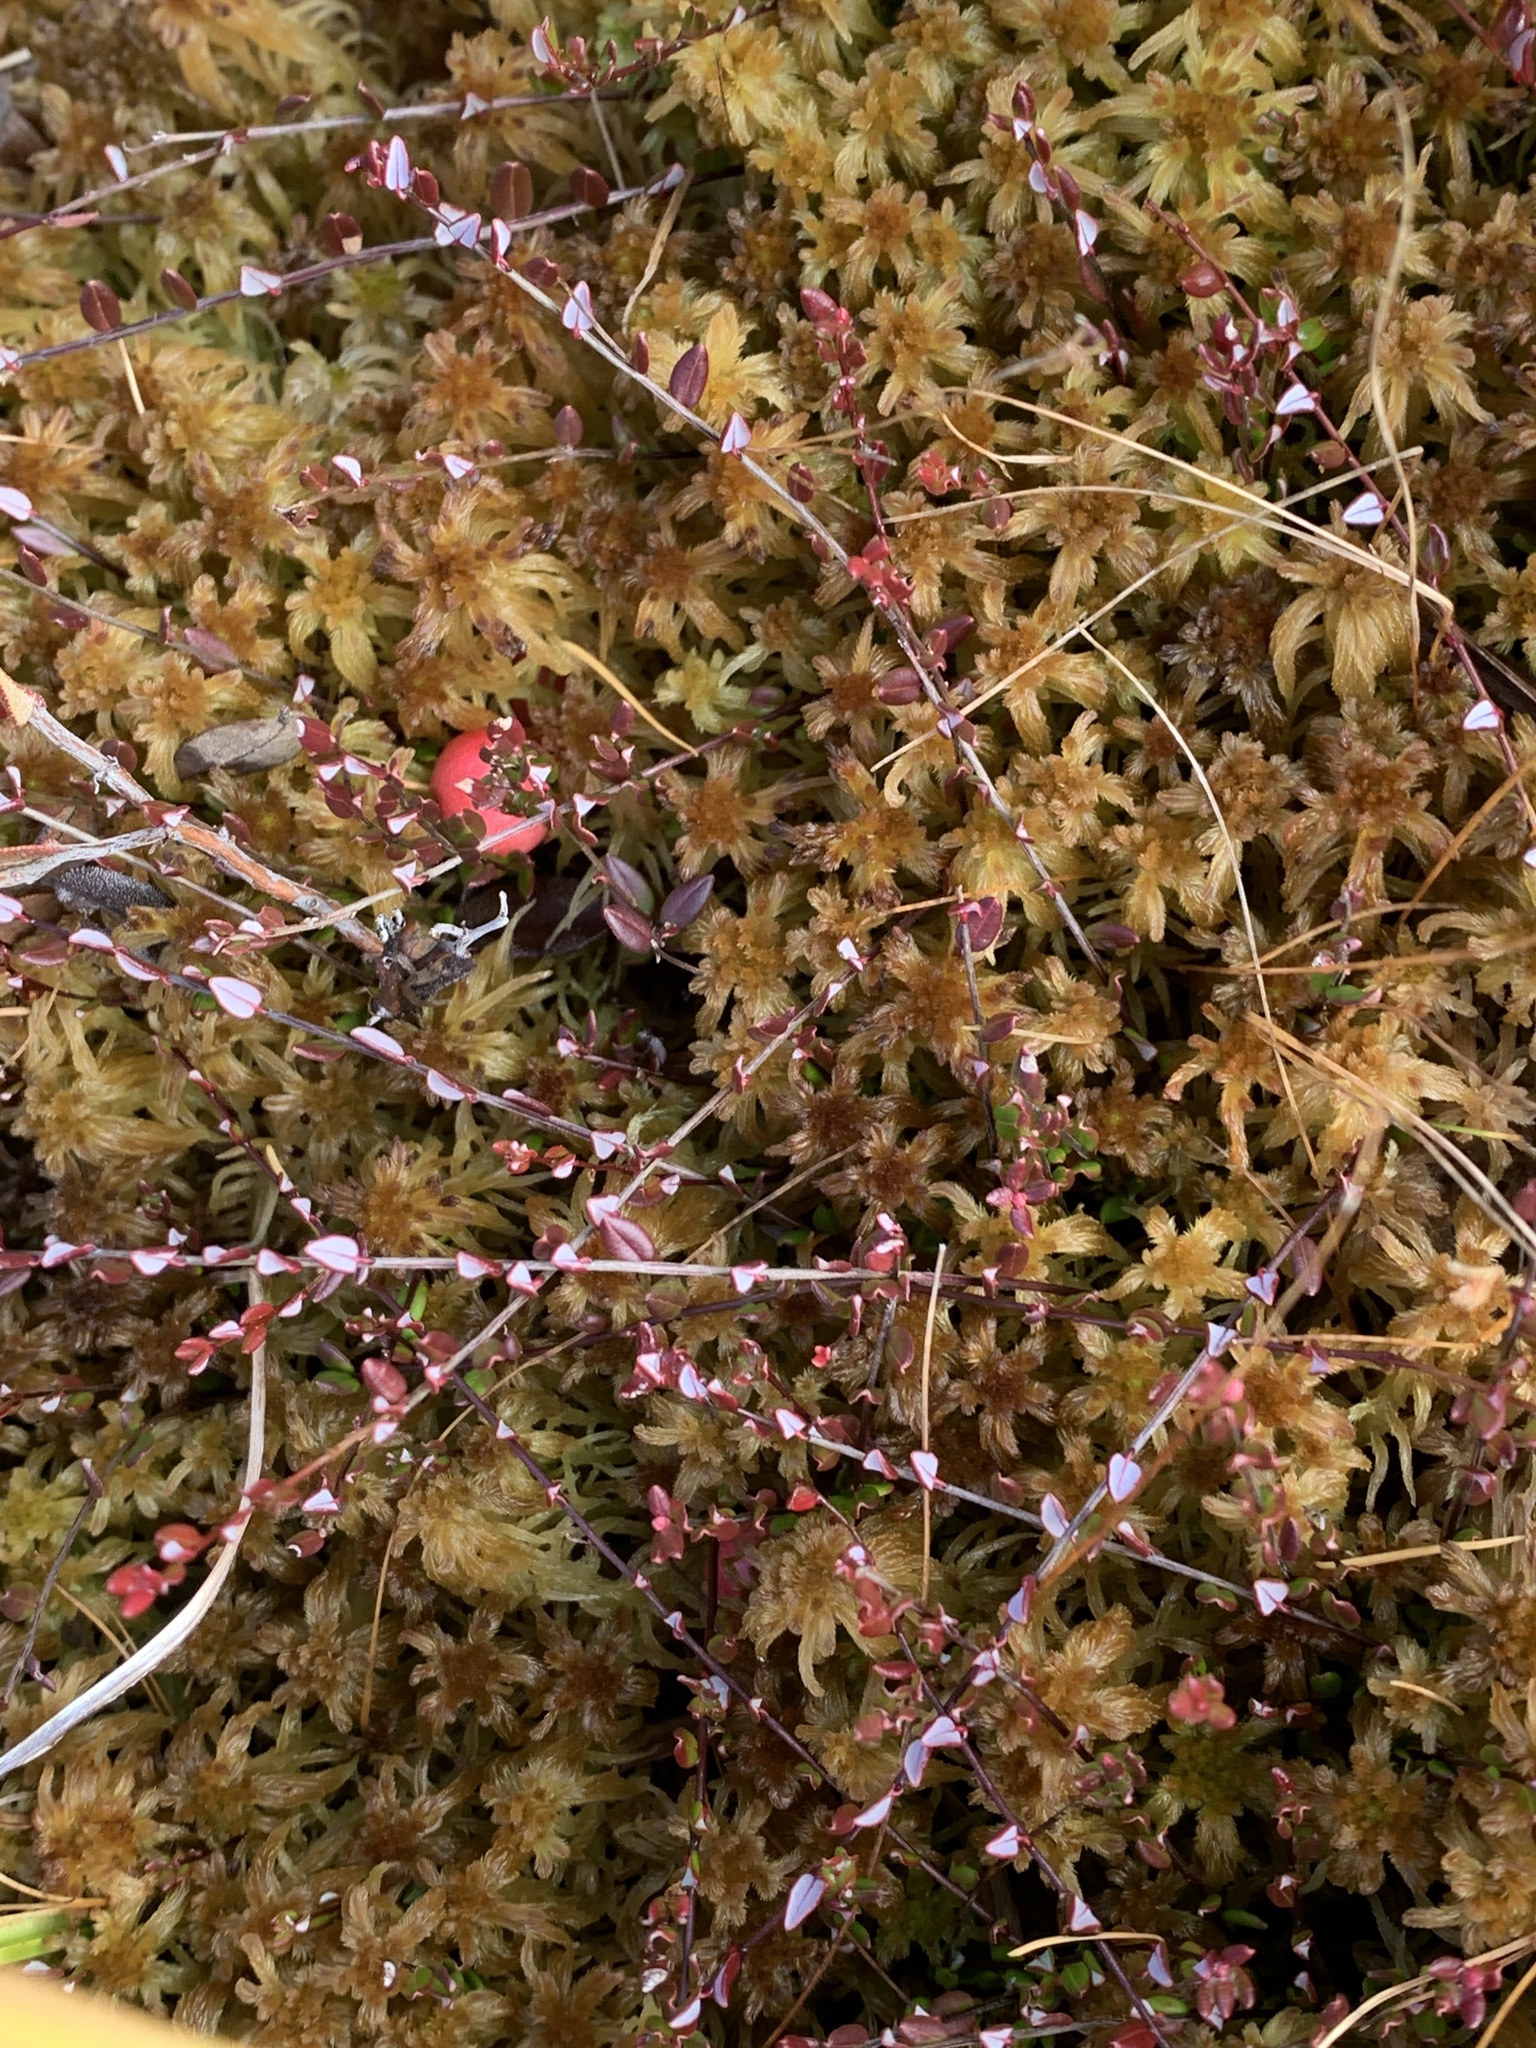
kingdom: Plantae
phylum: Tracheophyta
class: Magnoliopsida
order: Ericales
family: Ericaceae
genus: Vaccinium
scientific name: Vaccinium oxycoccos
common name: Cranberry
